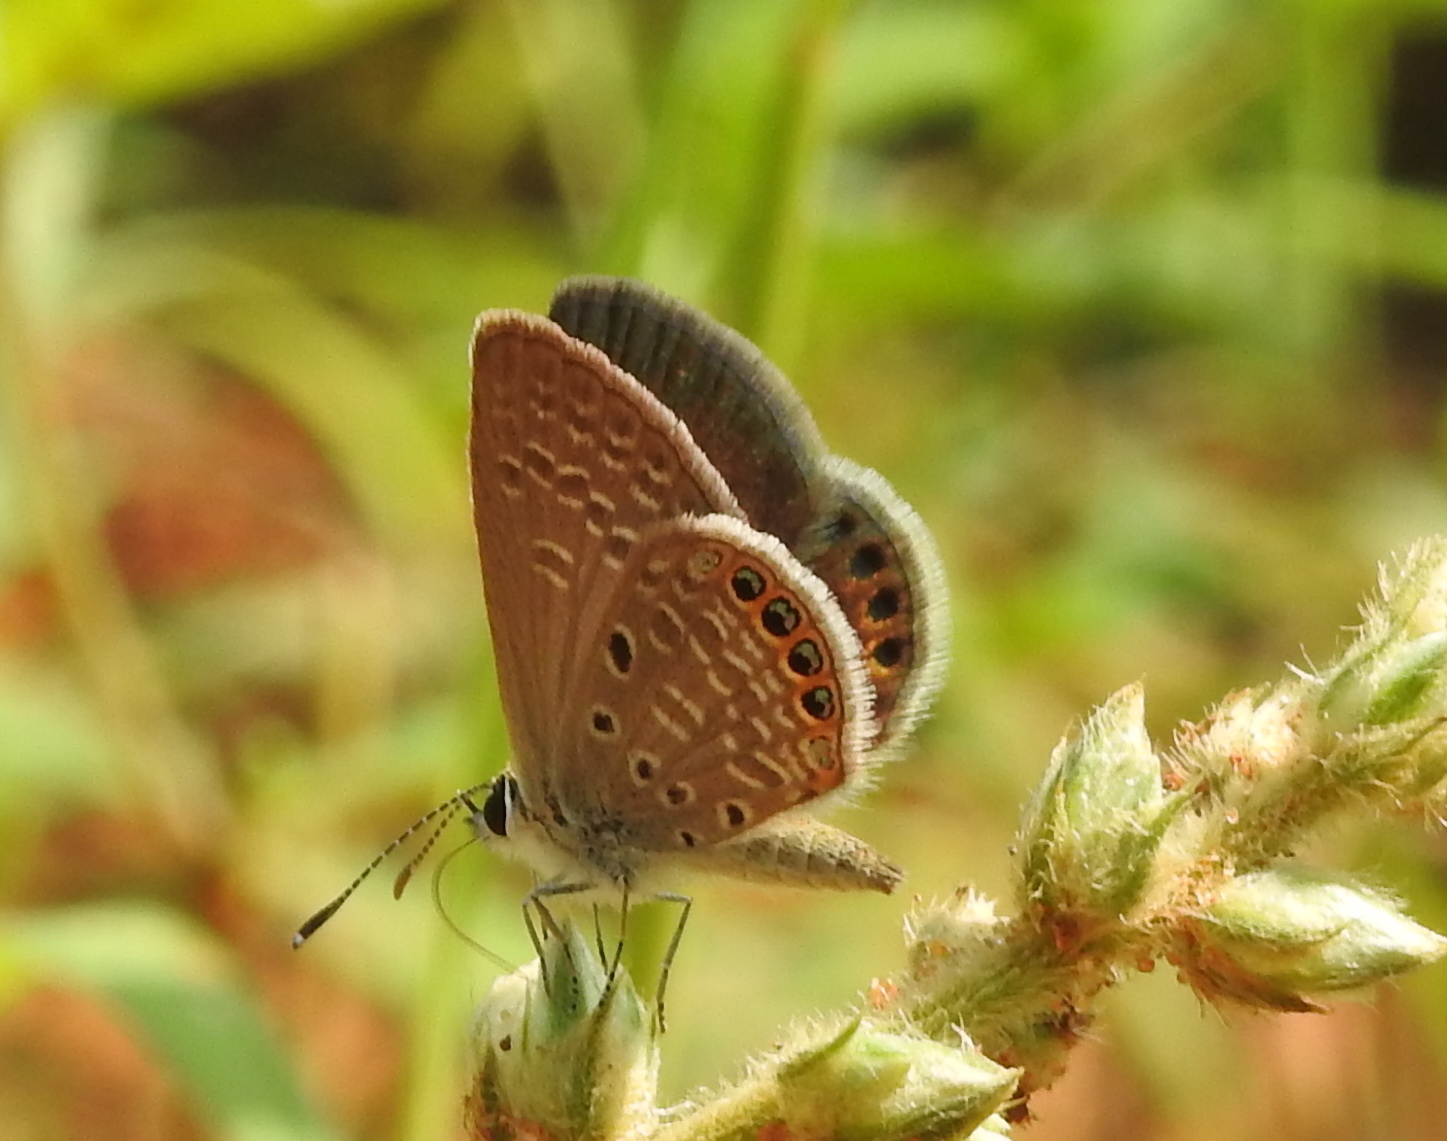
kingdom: Animalia
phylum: Arthropoda
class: Insecta
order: Lepidoptera
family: Lycaenidae
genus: Freyeria
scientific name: Freyeria putli
